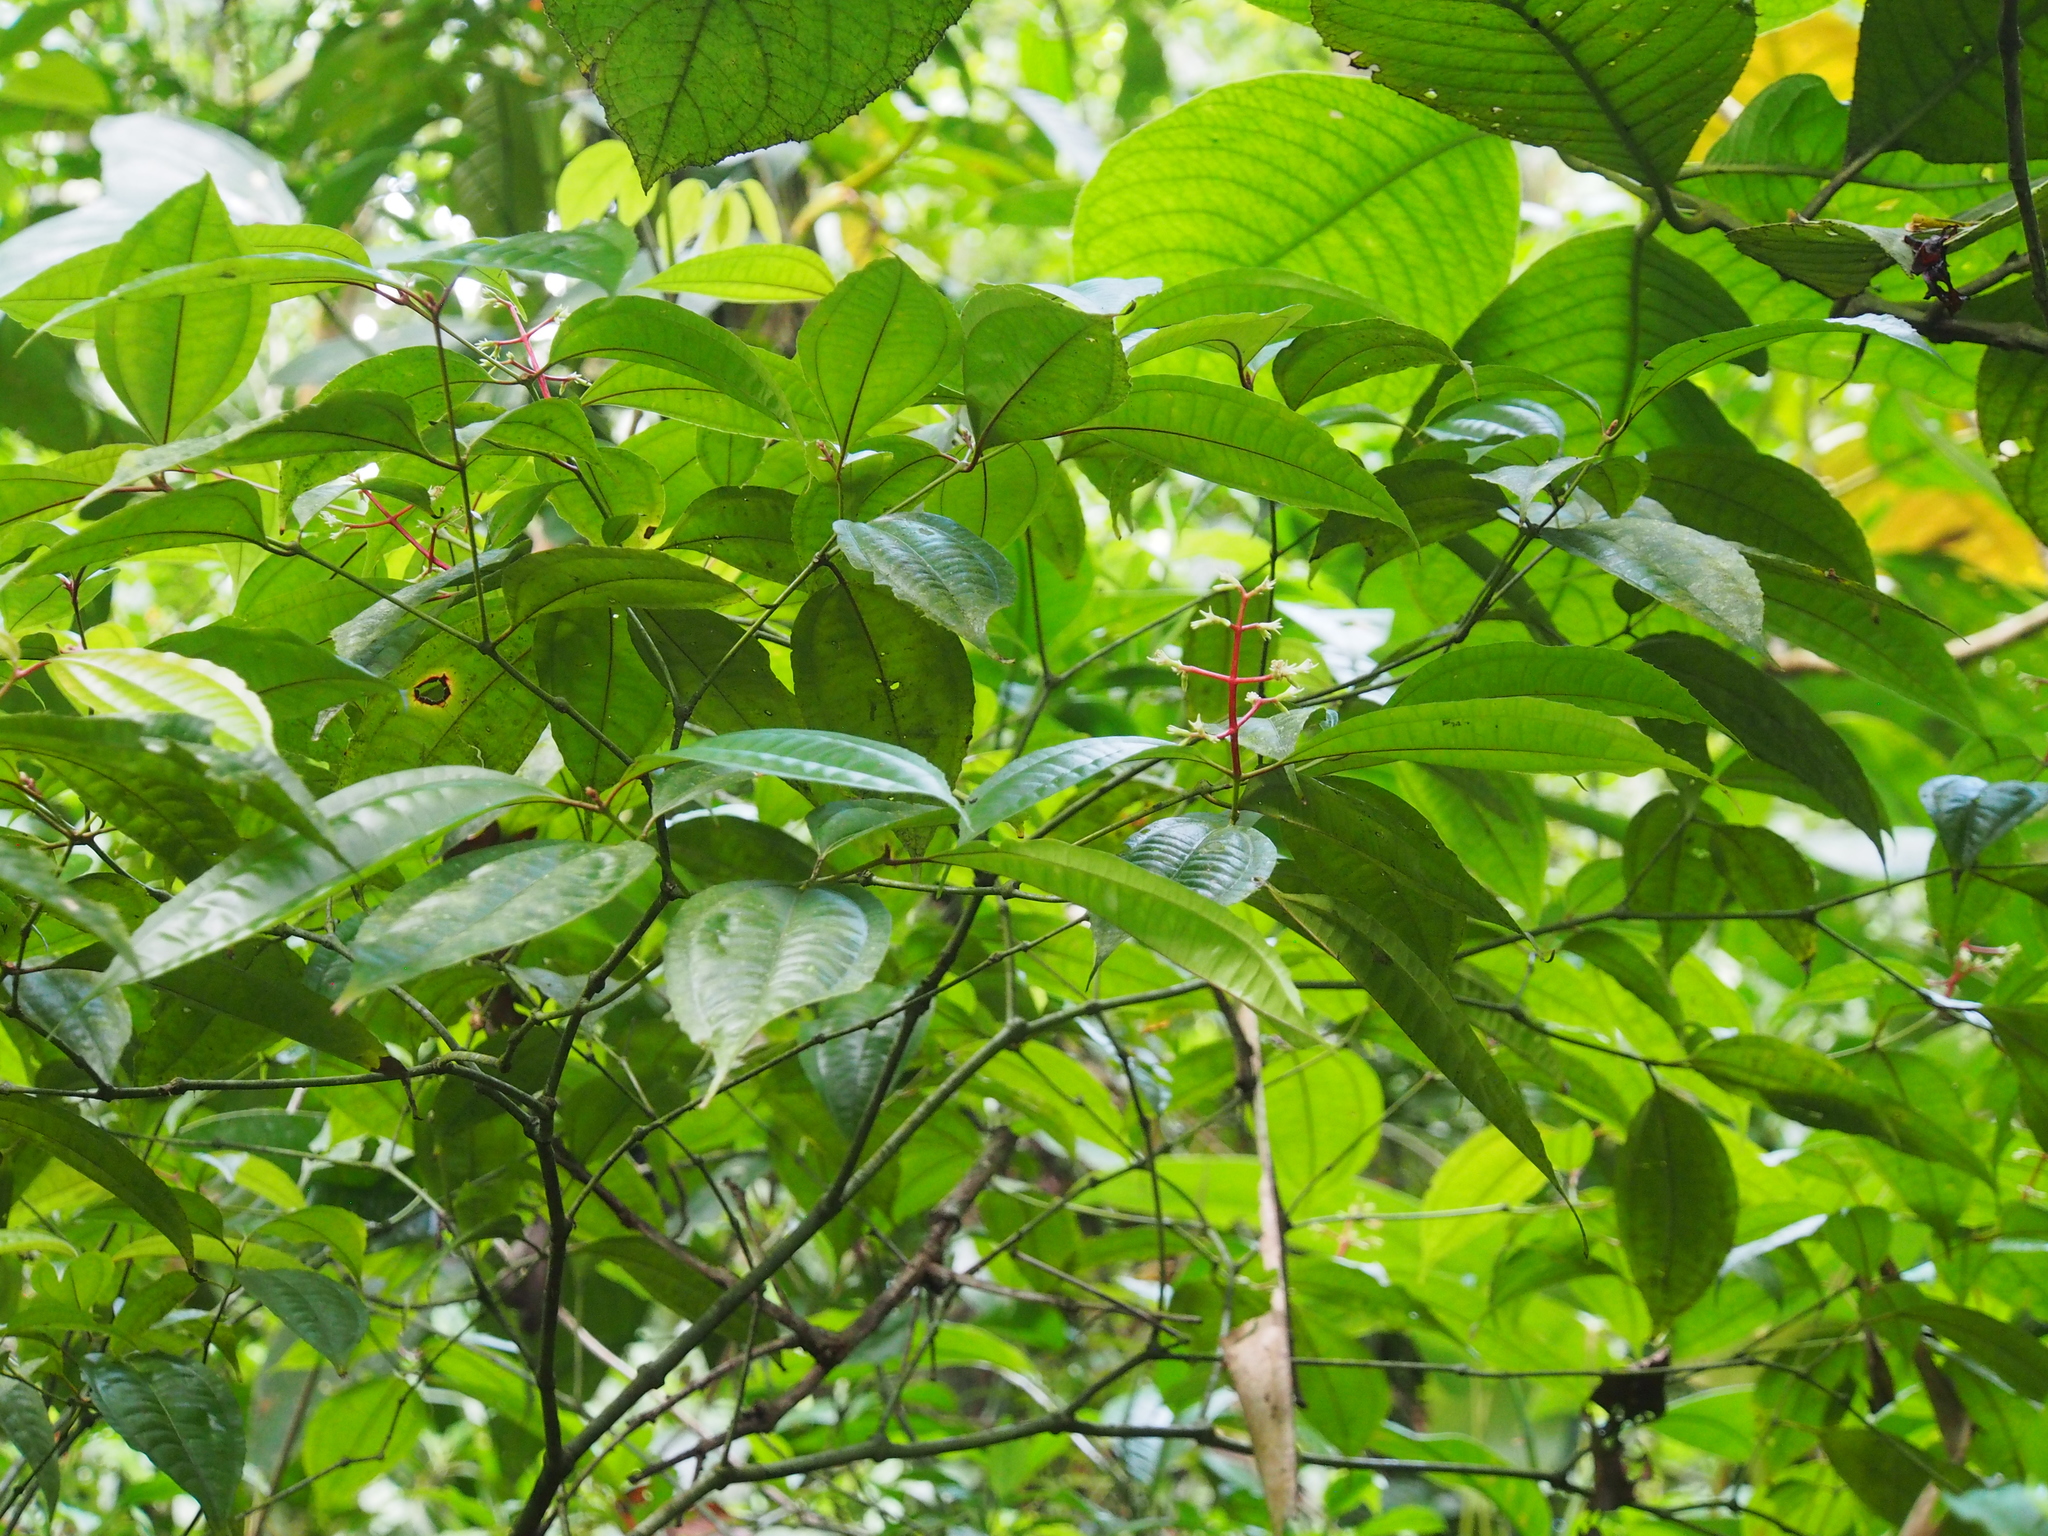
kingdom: Plantae
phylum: Tracheophyta
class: Magnoliopsida
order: Myrtales
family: Melastomataceae
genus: Miconia
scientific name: Miconia lateriflora
